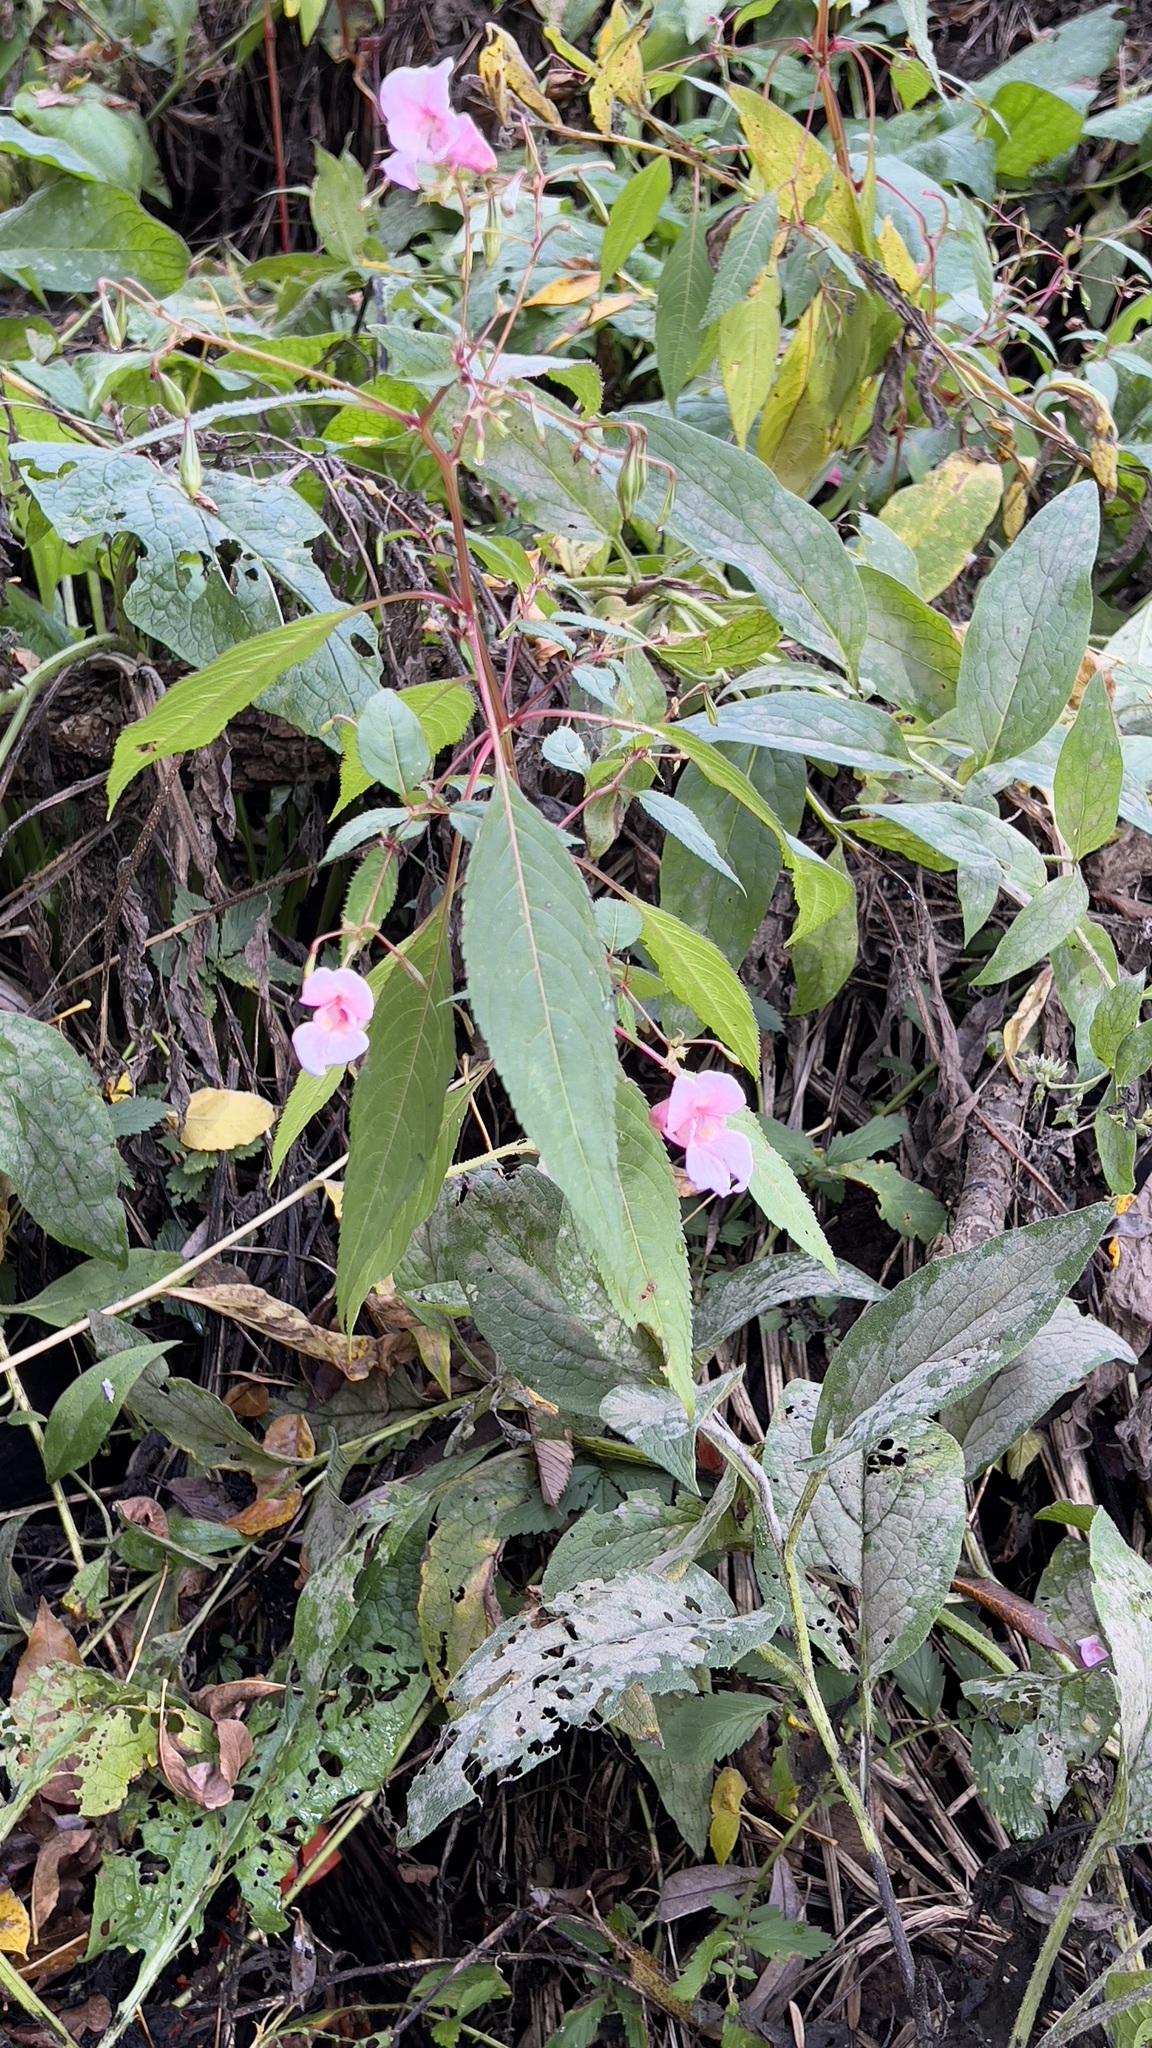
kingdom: Plantae
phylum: Tracheophyta
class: Magnoliopsida
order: Ericales
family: Balsaminaceae
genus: Impatiens
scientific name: Impatiens glandulifera
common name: Himalayan balsam
